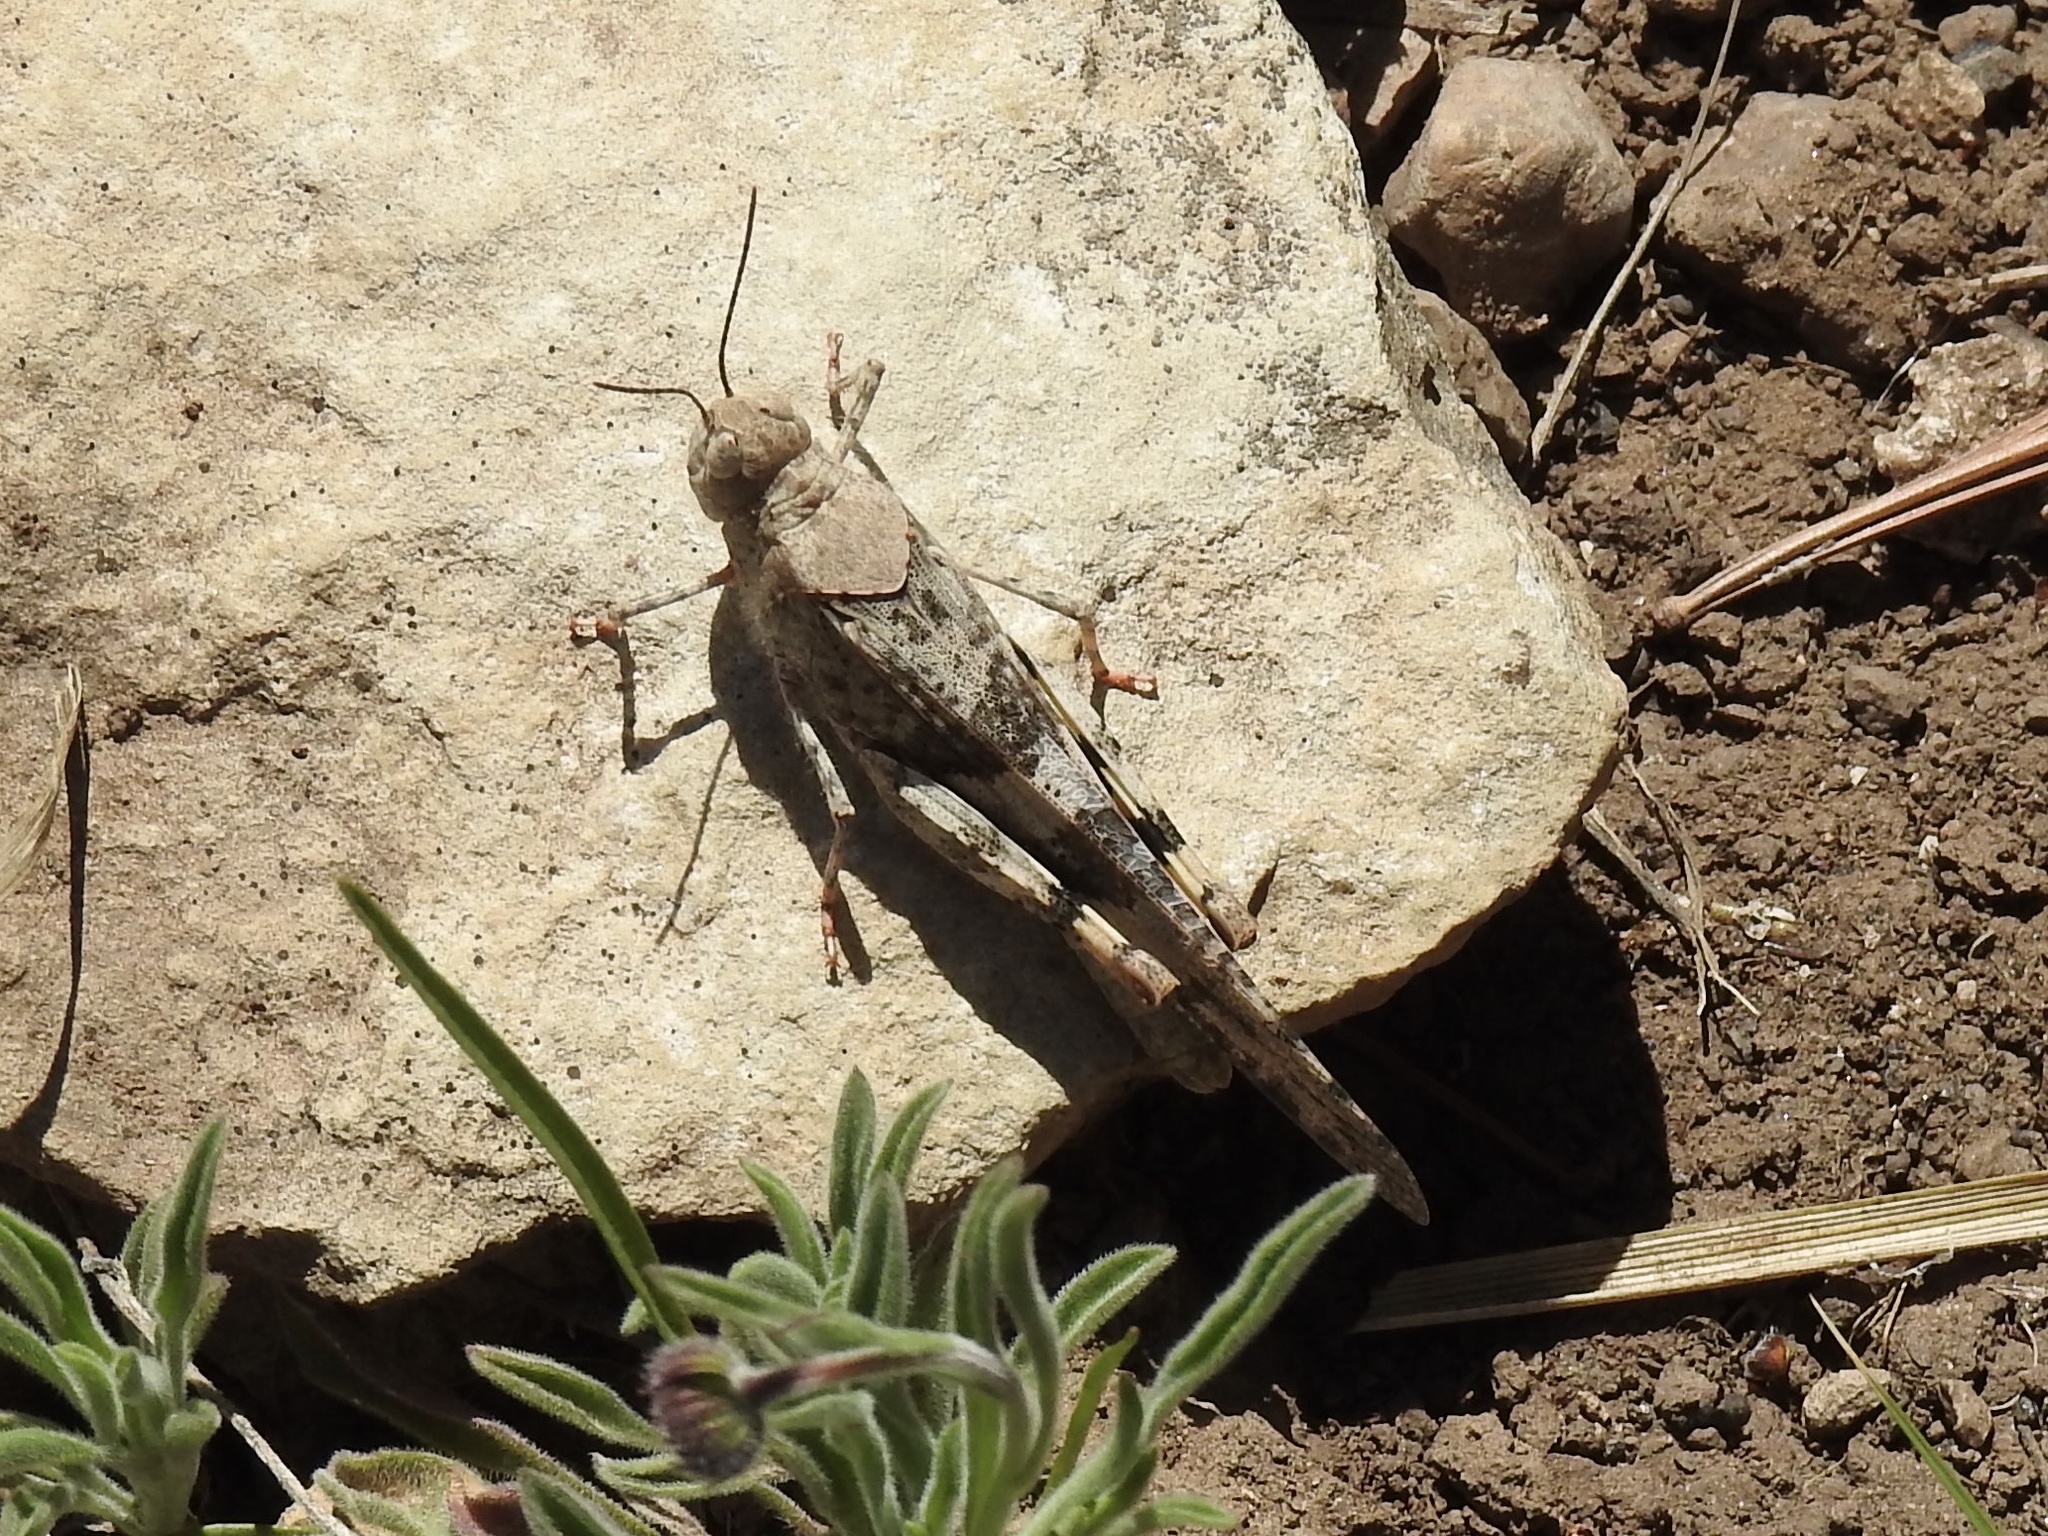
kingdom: Animalia
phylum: Arthropoda
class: Insecta
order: Orthoptera
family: Acrididae
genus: Trimerotropis
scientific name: Trimerotropis pallidipennis
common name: Pallid-winged grasshopper
